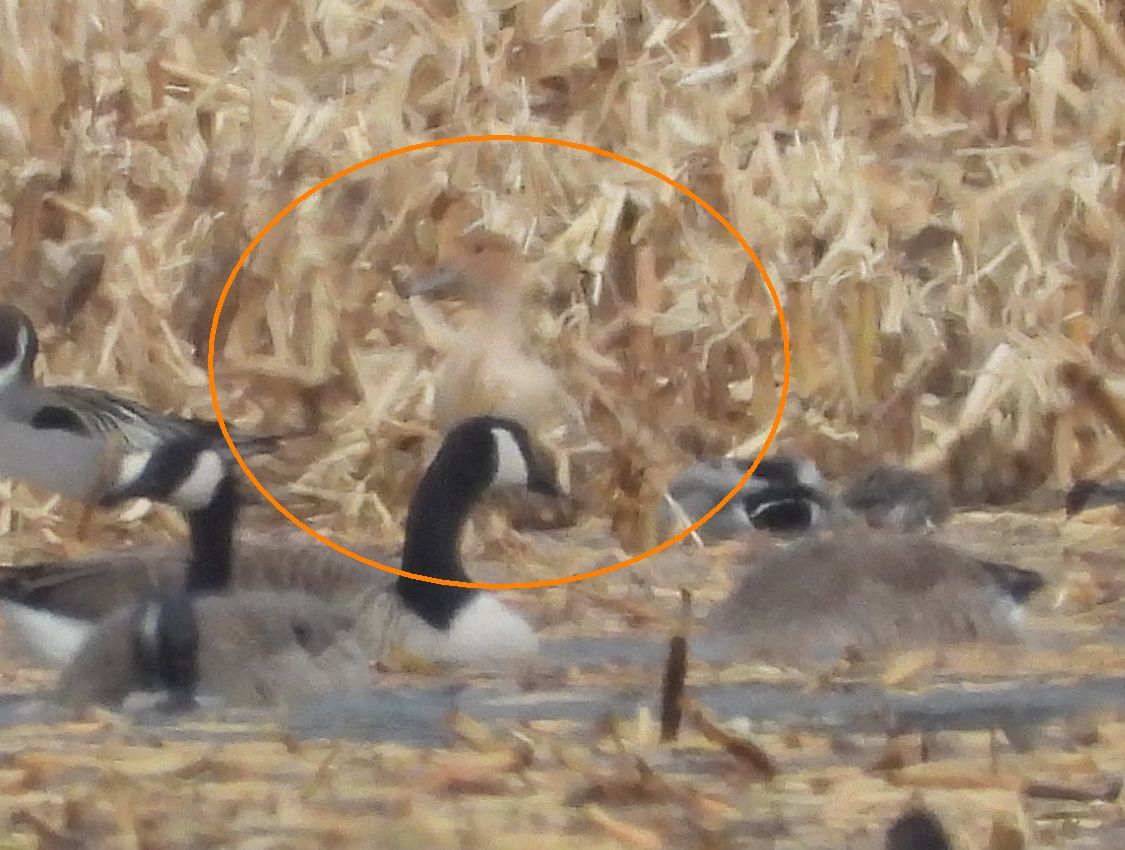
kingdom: Animalia
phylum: Chordata
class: Aves
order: Anseriformes
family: Anatidae
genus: Anas
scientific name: Anas acuta
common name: Northern pintail
